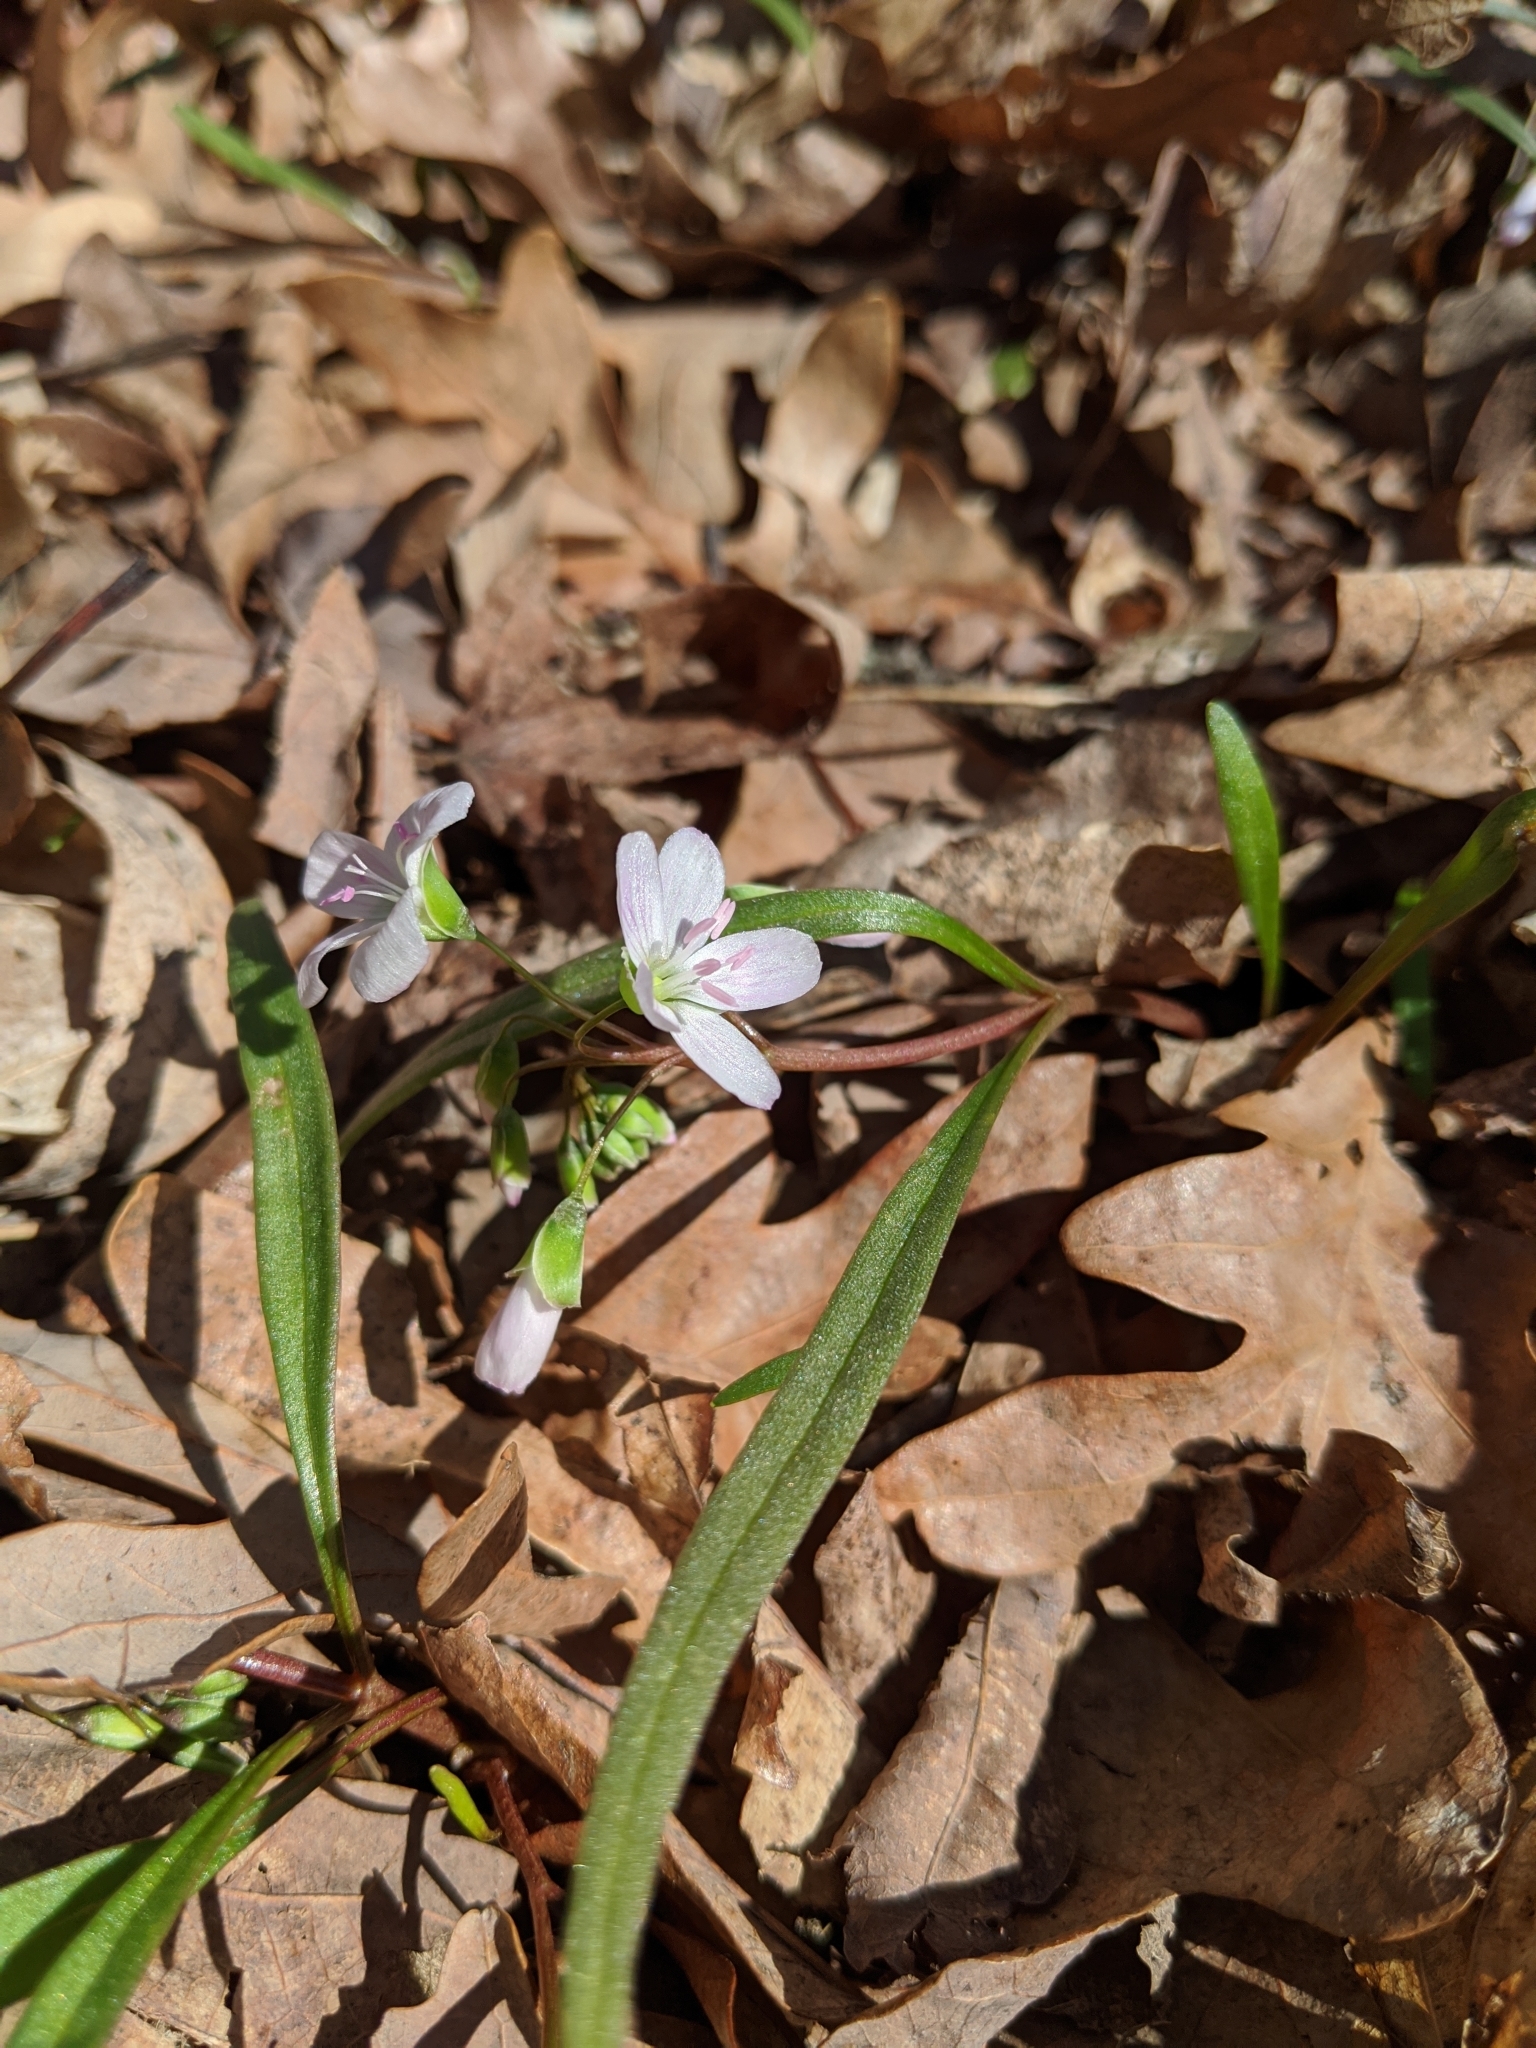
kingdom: Plantae
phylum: Tracheophyta
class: Magnoliopsida
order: Caryophyllales
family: Montiaceae
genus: Claytonia
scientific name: Claytonia virginica
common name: Virginia springbeauty
